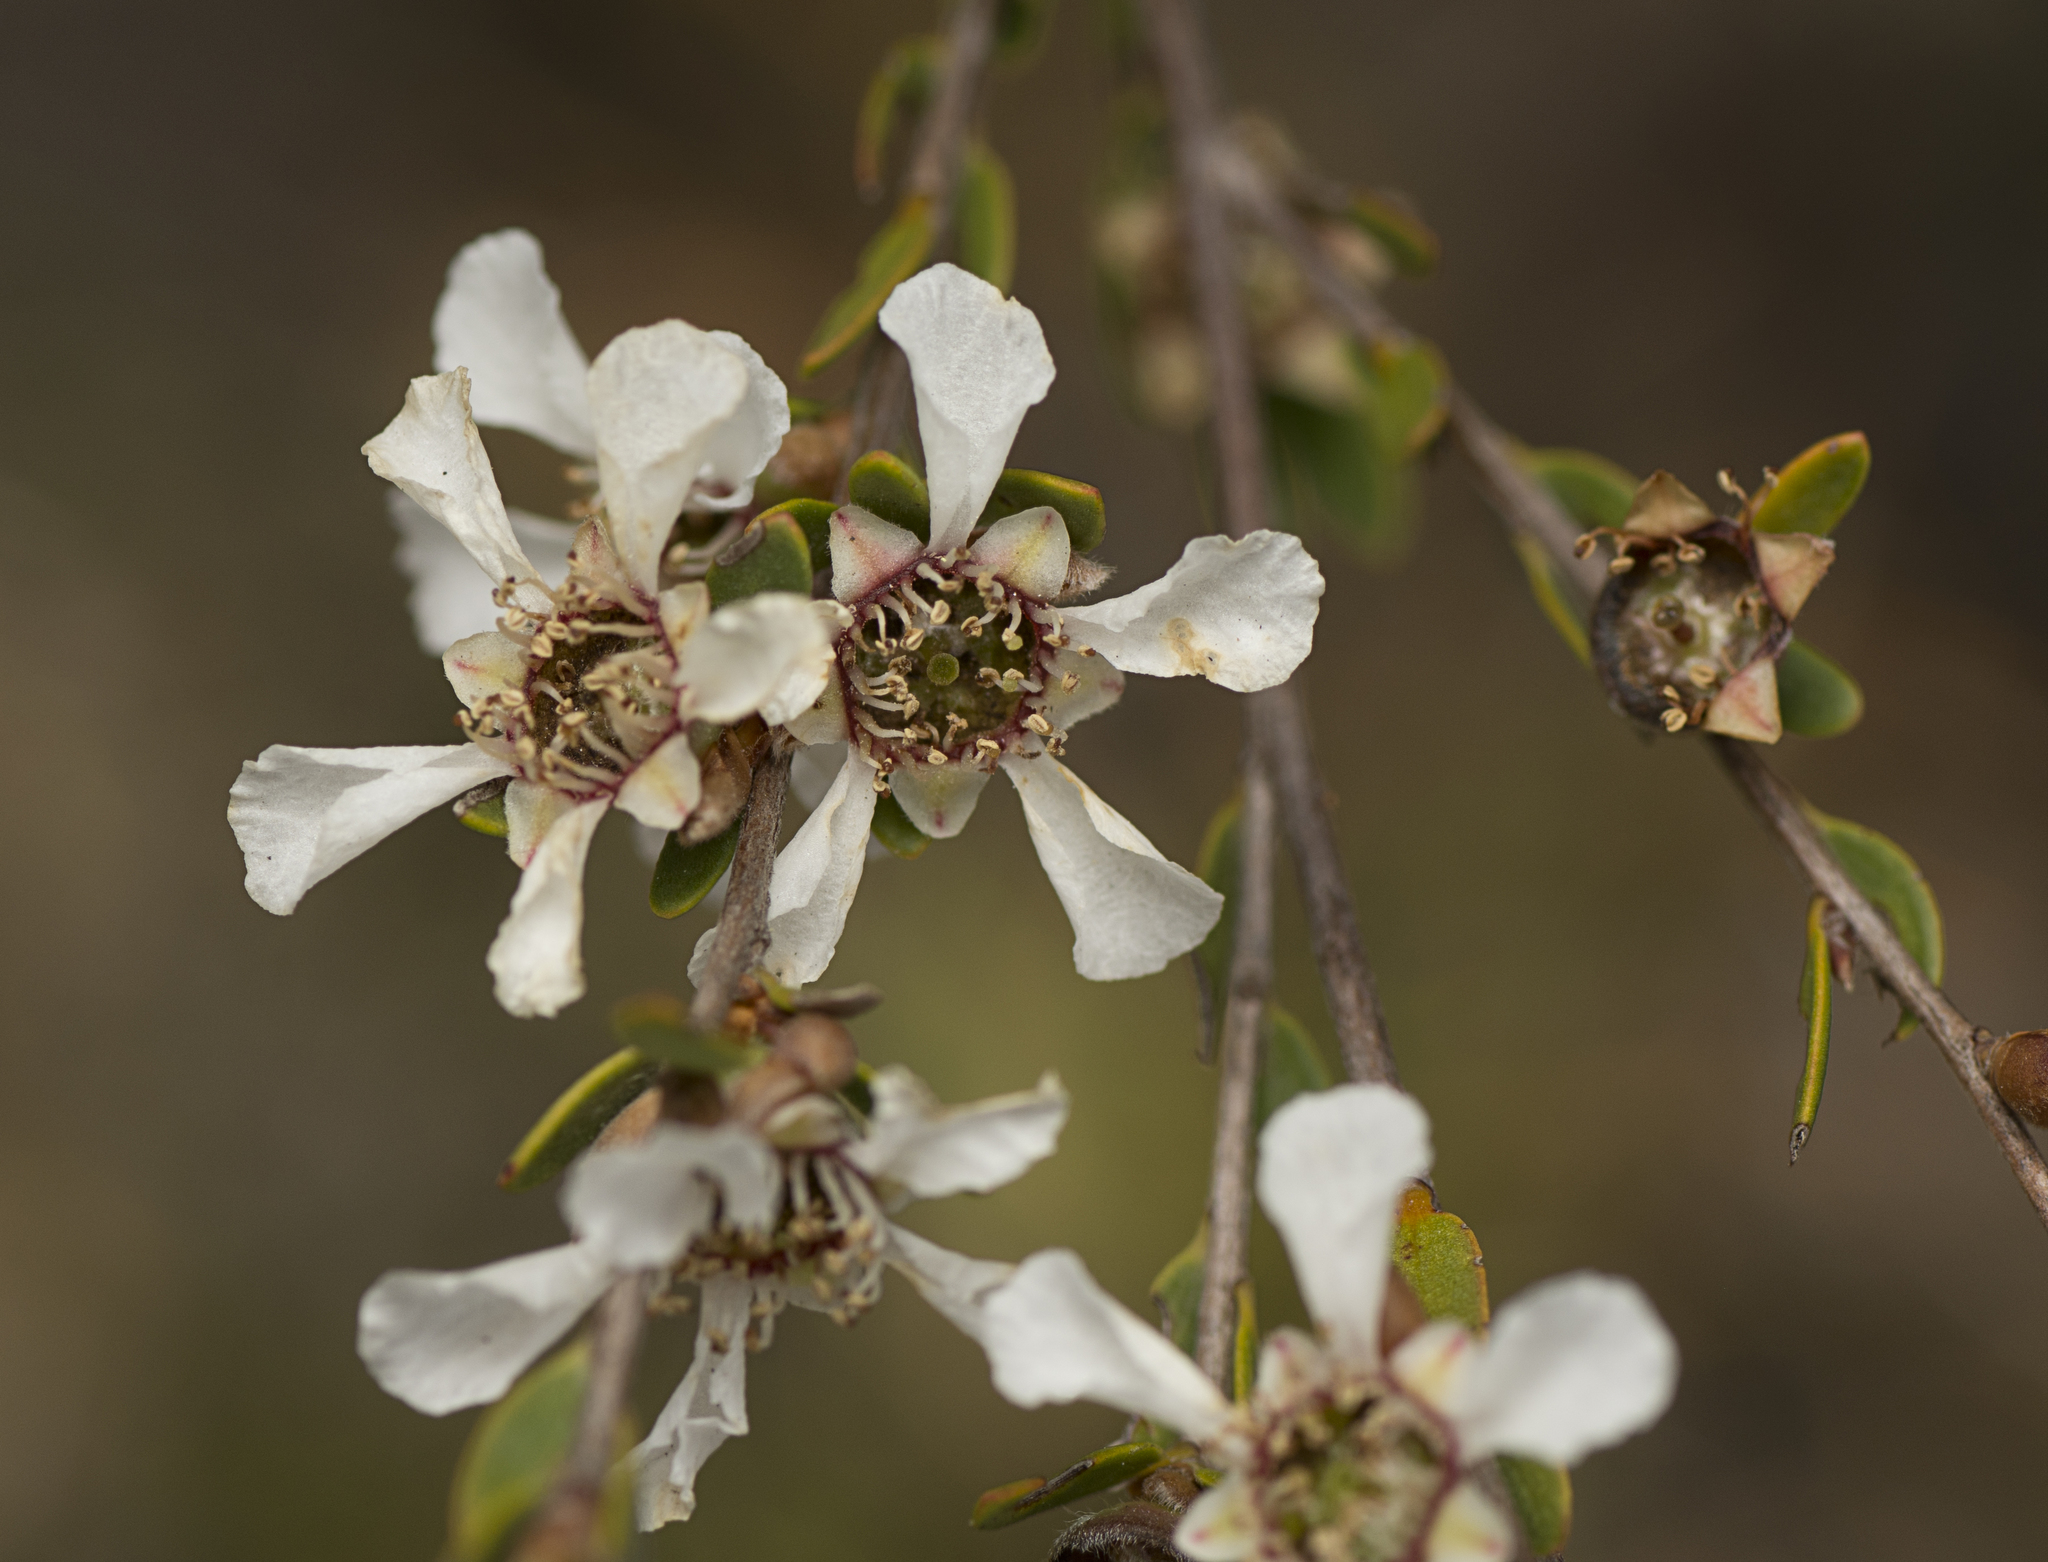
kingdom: Plantae
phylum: Tracheophyta
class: Magnoliopsida
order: Myrtales
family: Myrtaceae
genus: Leptospermum
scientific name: Leptospermum semibaccatum
